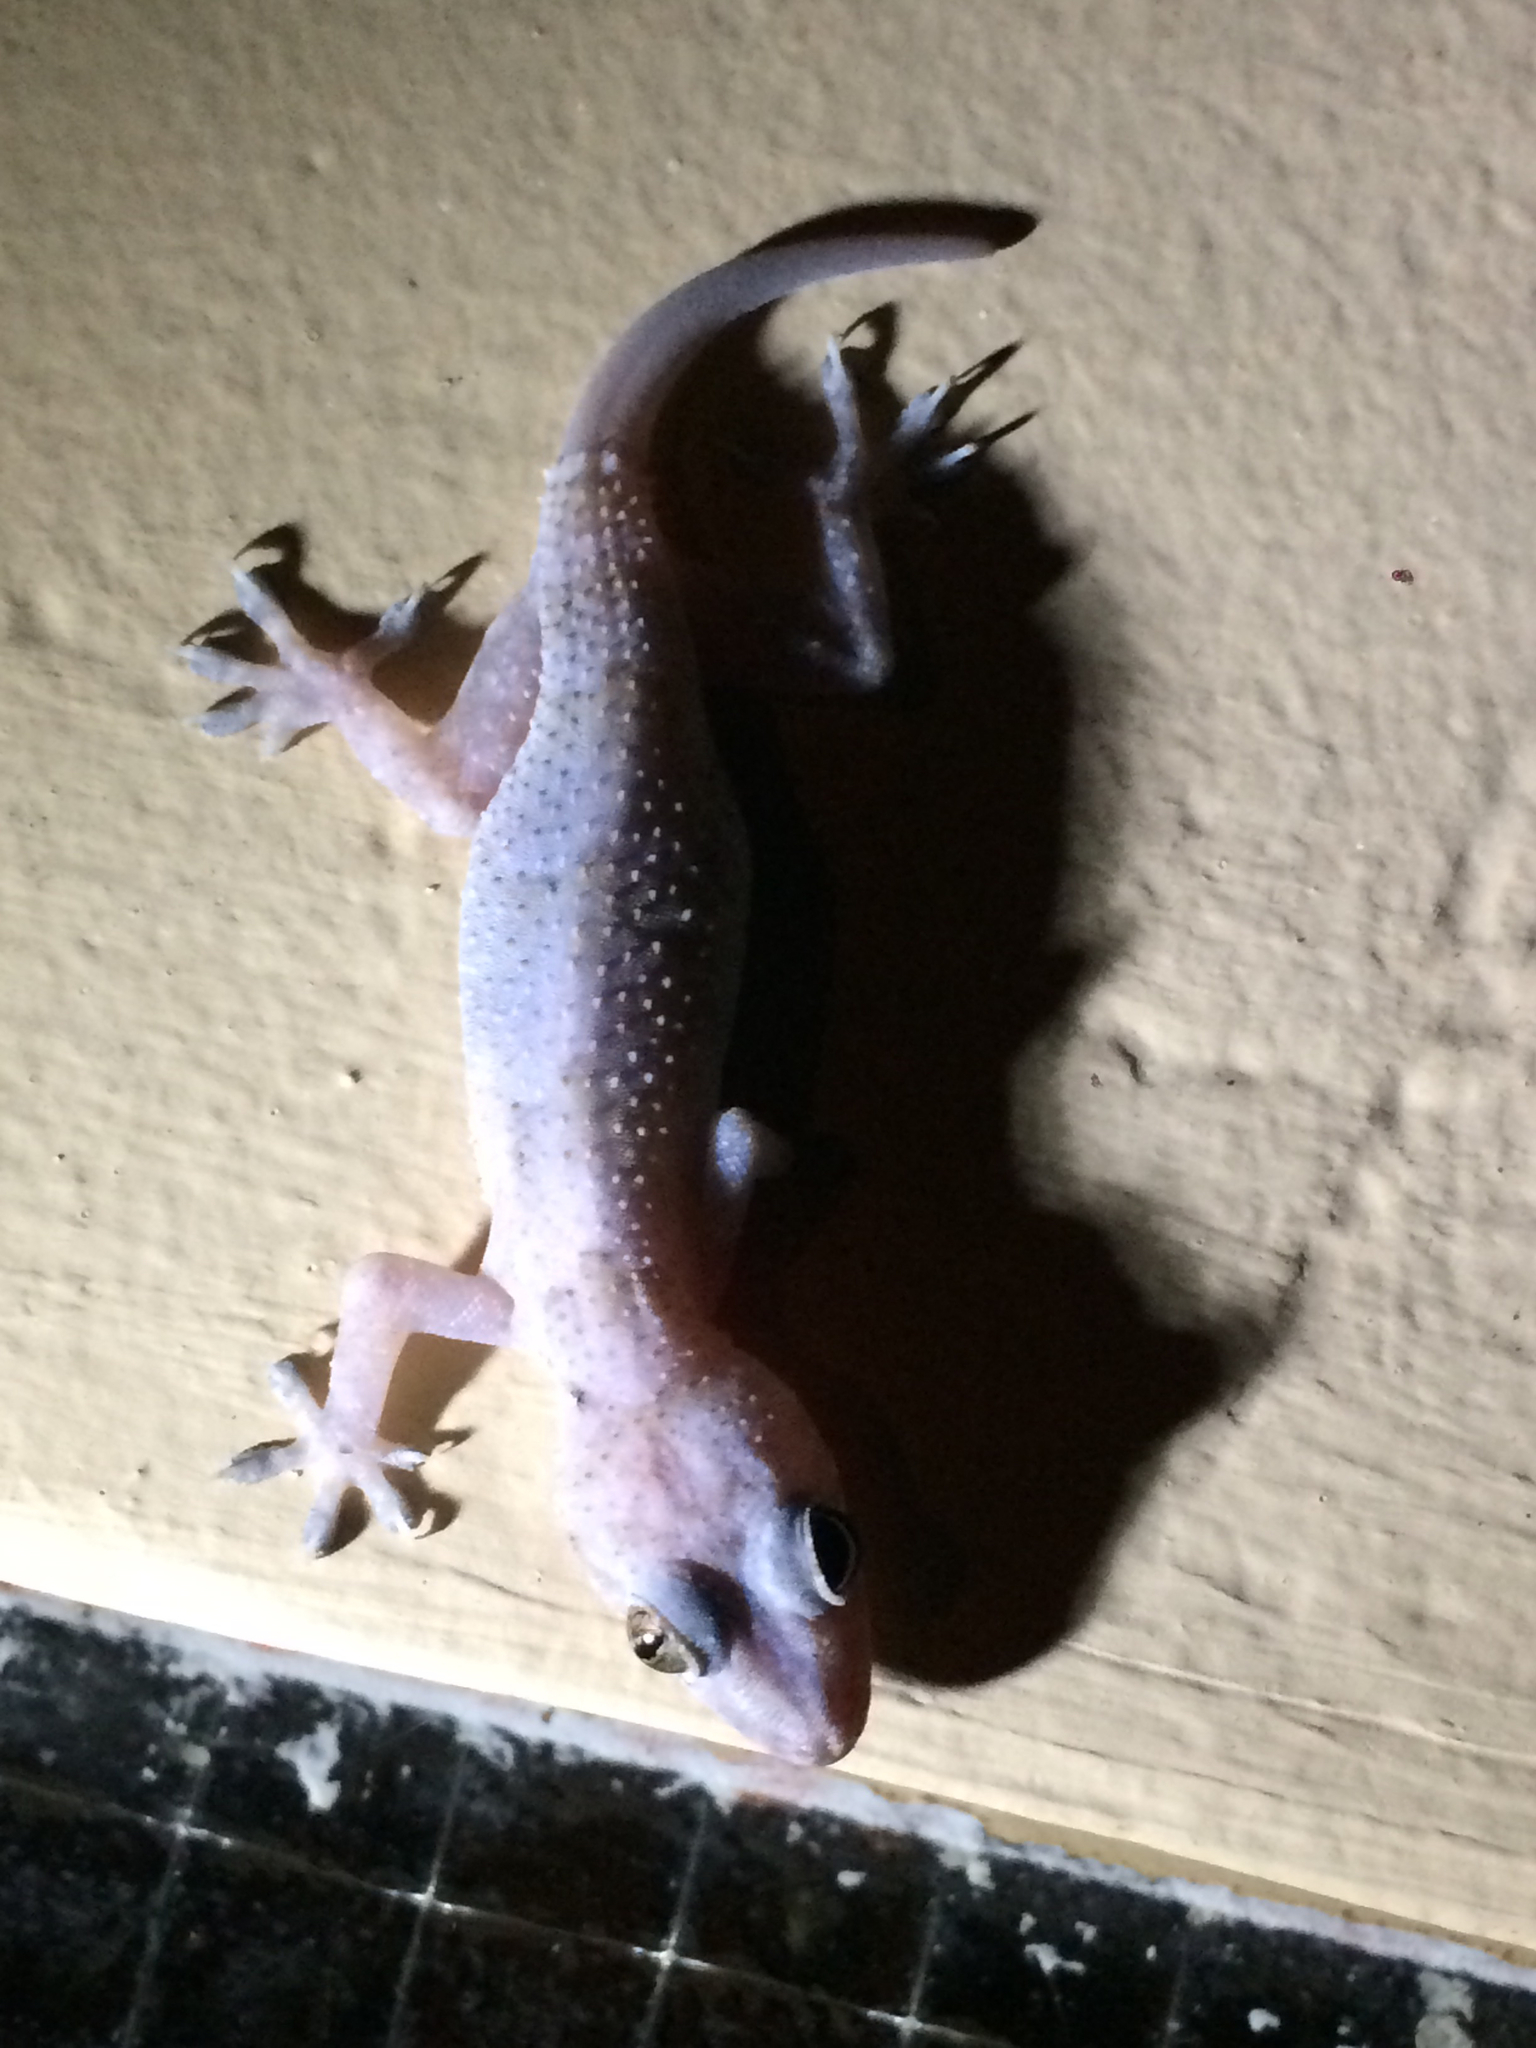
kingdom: Animalia
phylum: Chordata
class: Squamata
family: Gekkonidae
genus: Hemidactylus
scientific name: Hemidactylus mabouia
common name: House gecko
